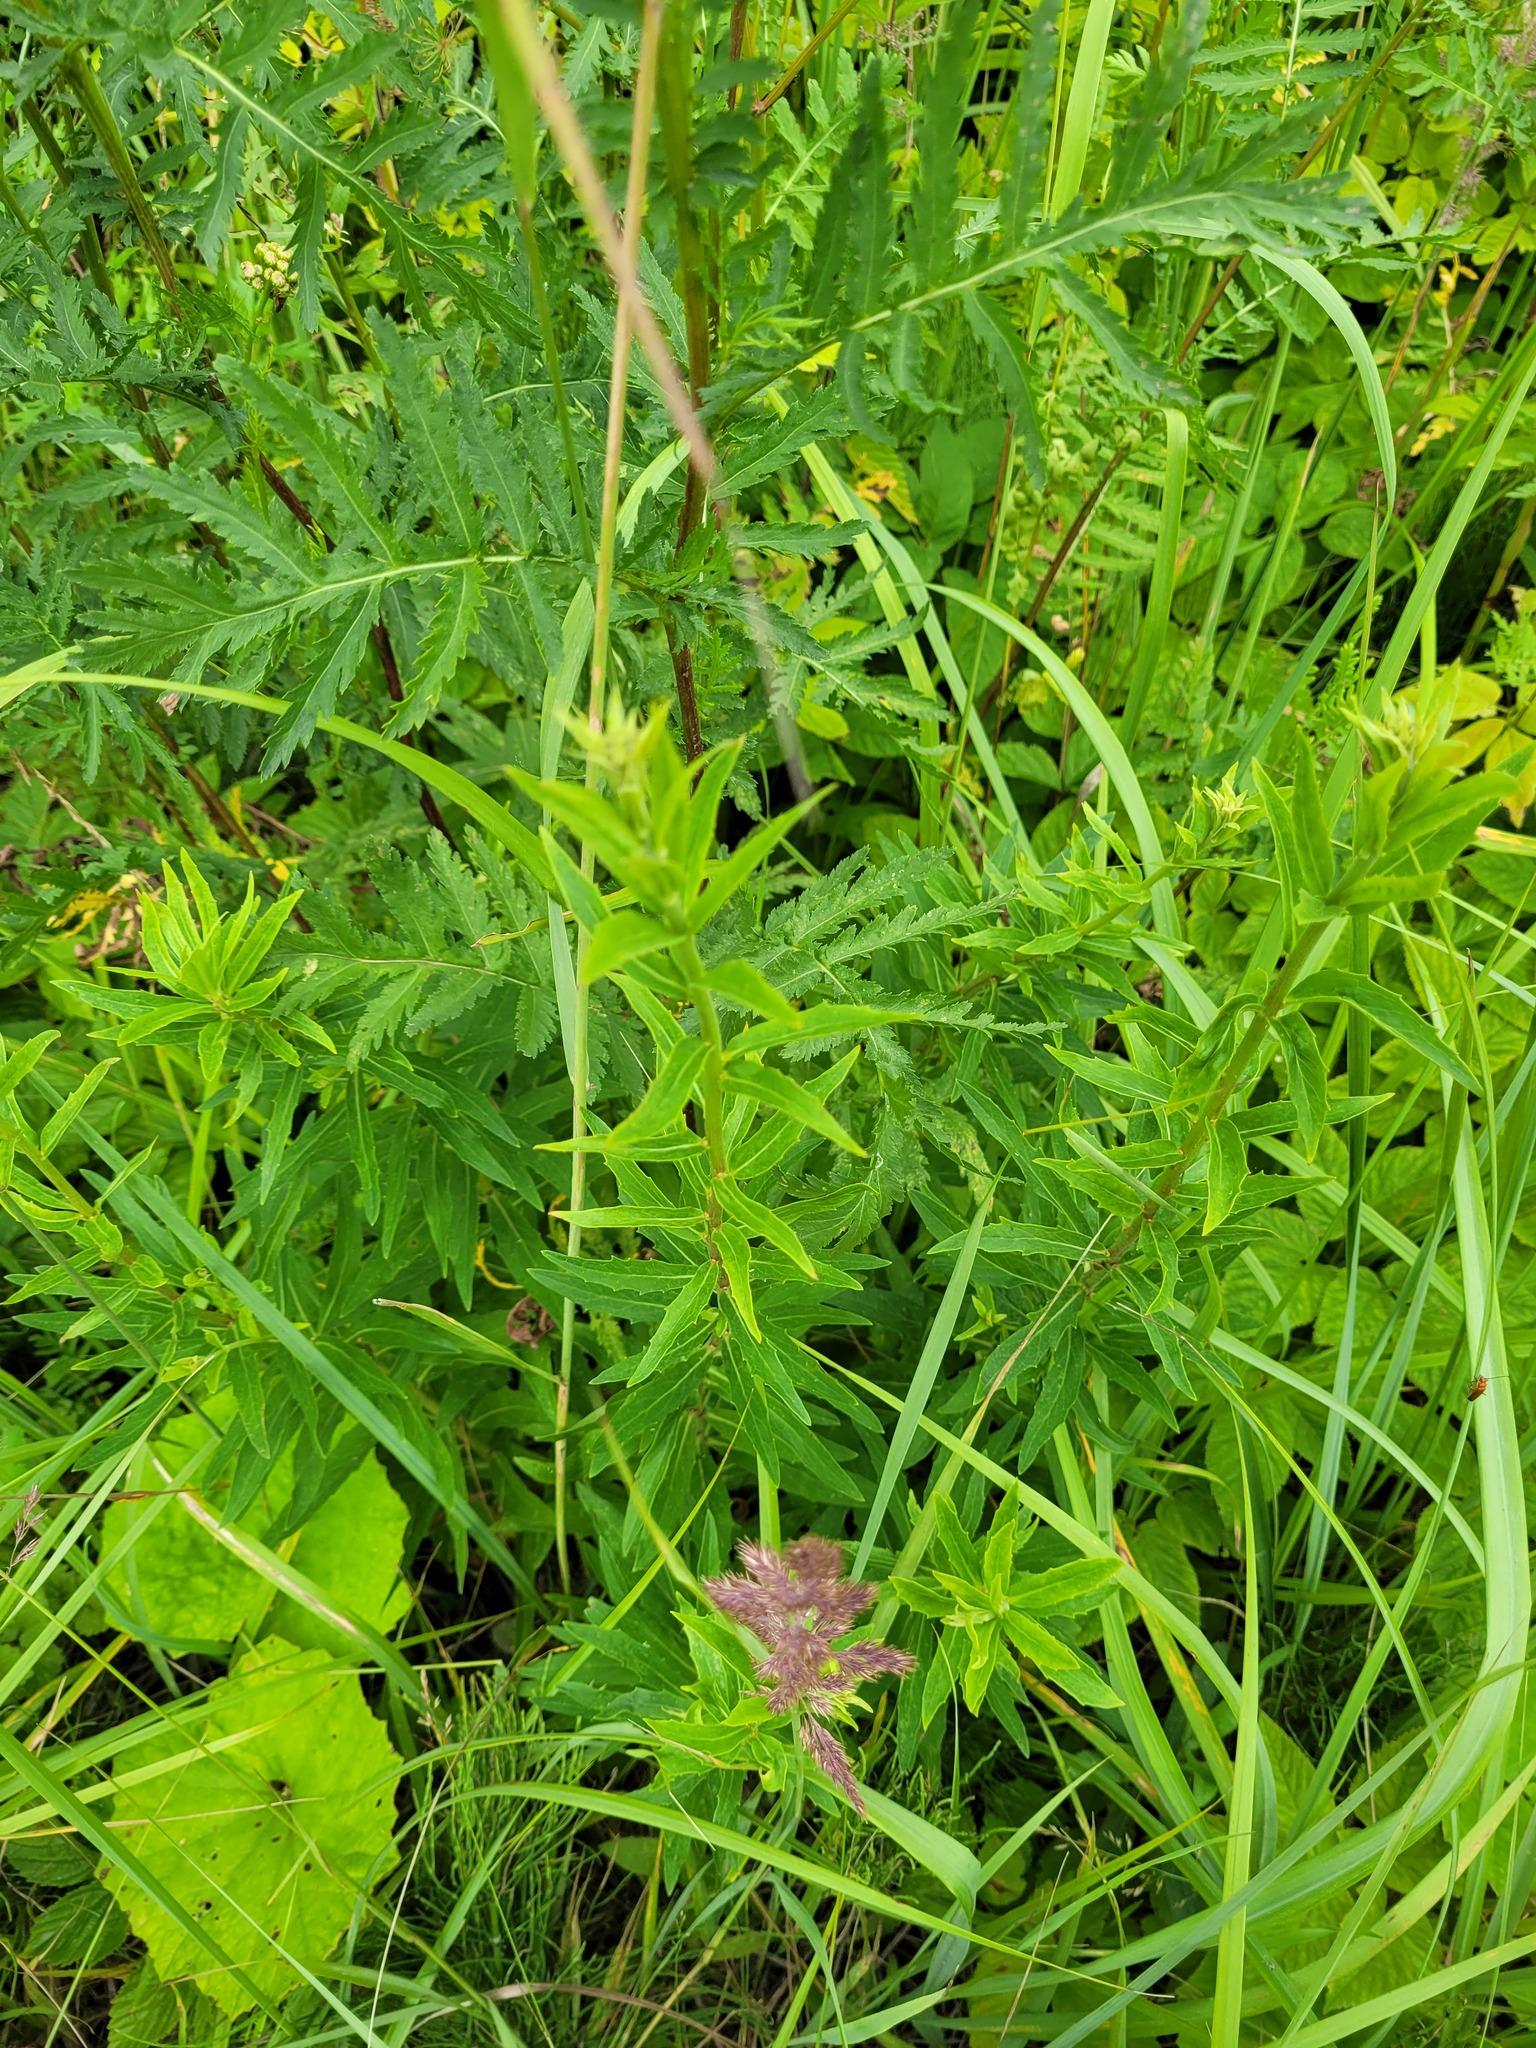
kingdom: Plantae
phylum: Tracheophyta
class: Magnoliopsida
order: Asterales
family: Asteraceae
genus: Hieracium
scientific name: Hieracium umbellatum
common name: Northern hawkweed
